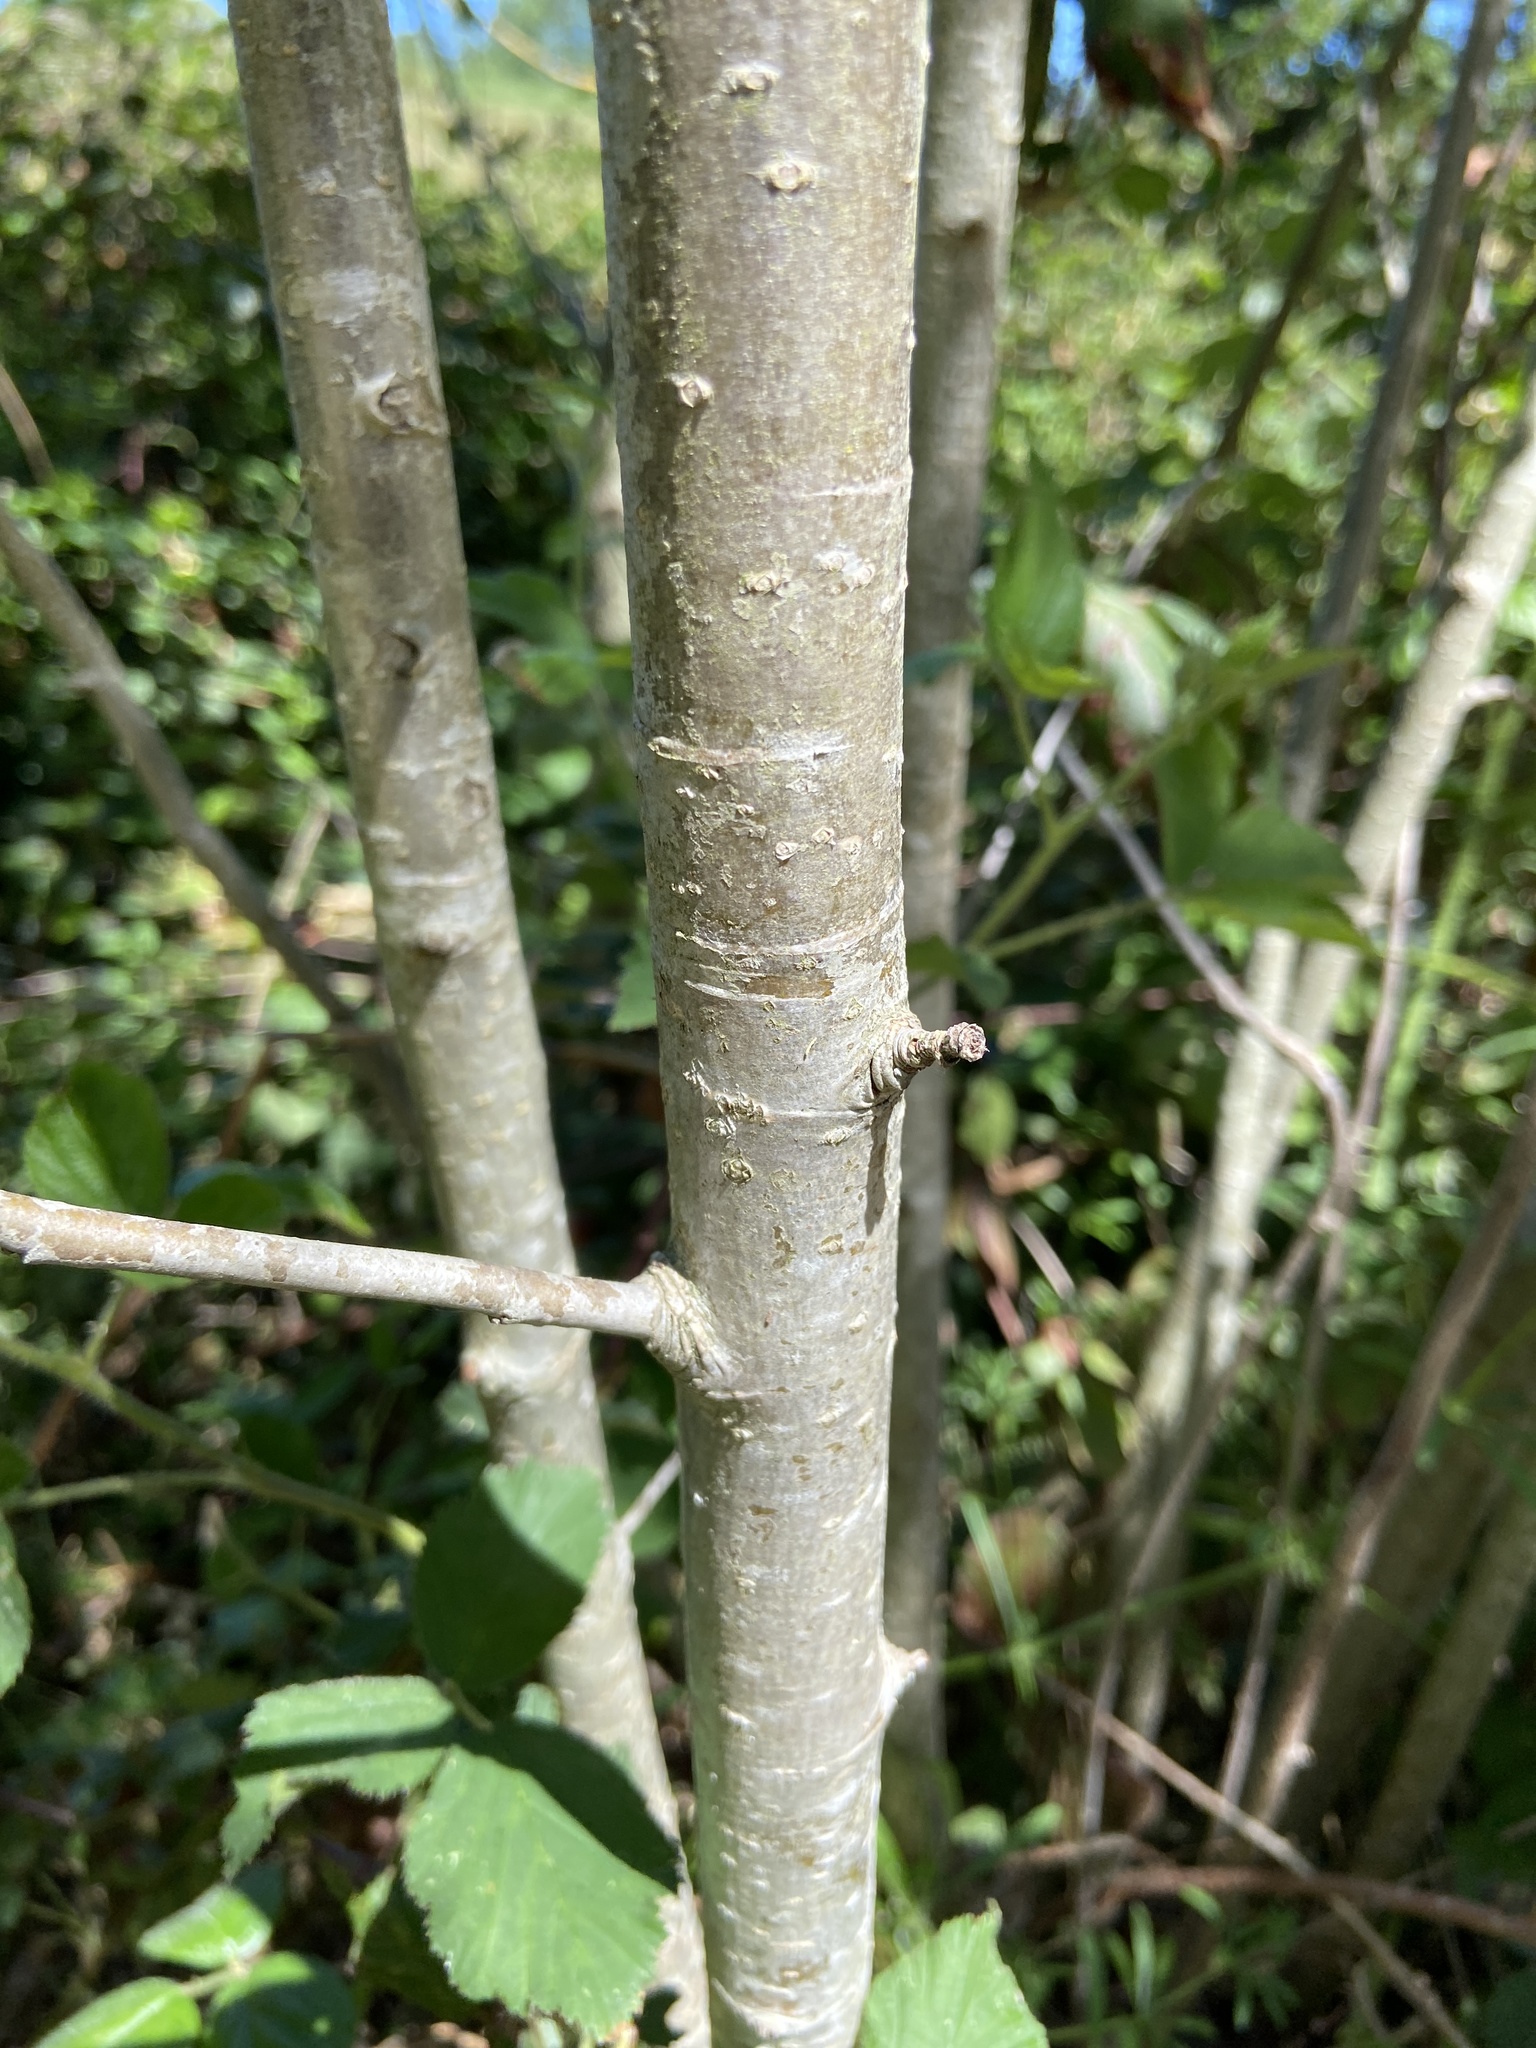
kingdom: Plantae
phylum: Tracheophyta
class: Magnoliopsida
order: Rosales
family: Rosaceae
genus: Sorbus
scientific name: Sorbus aucuparia
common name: Rowan
